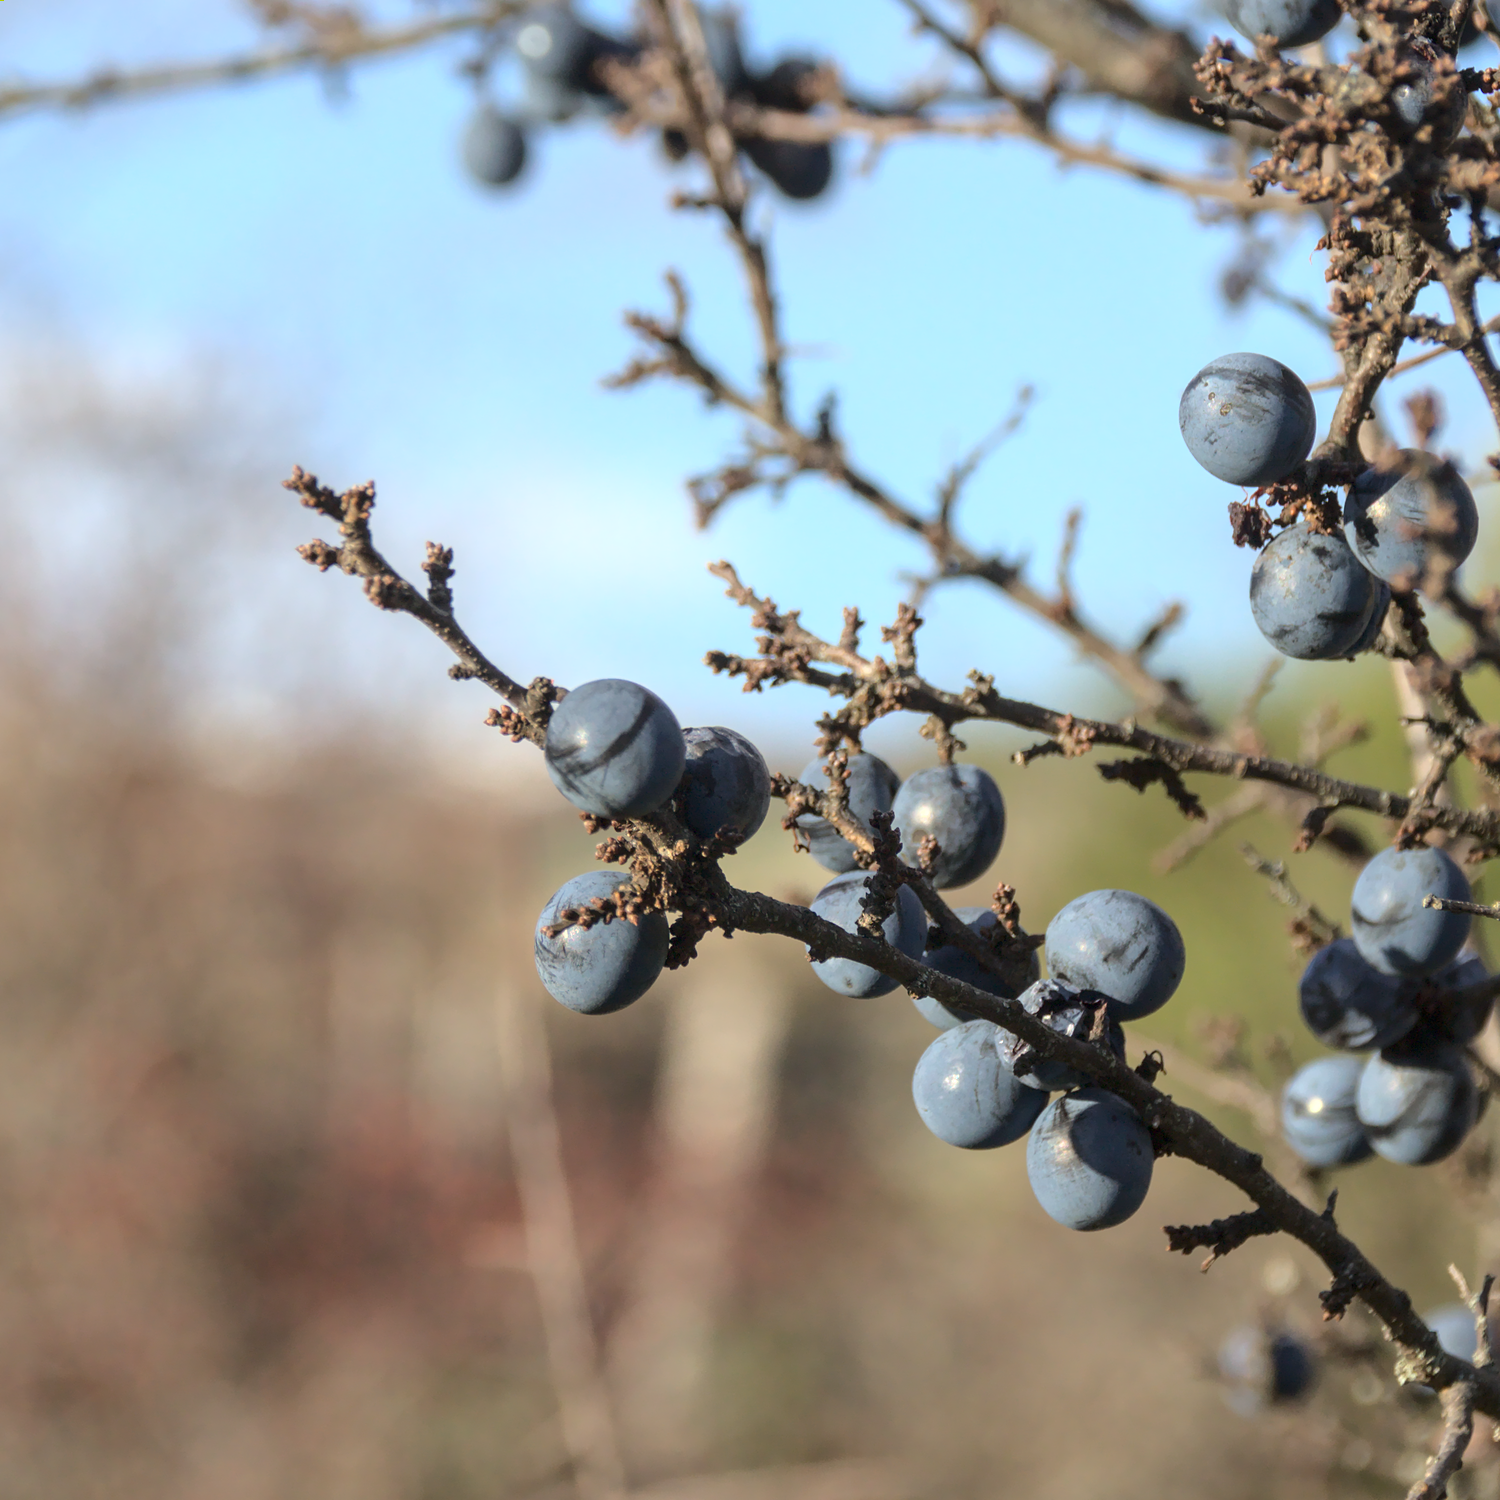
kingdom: Plantae
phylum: Tracheophyta
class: Magnoliopsida
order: Rosales
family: Rosaceae
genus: Prunus
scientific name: Prunus spinosa
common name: Blackthorn
